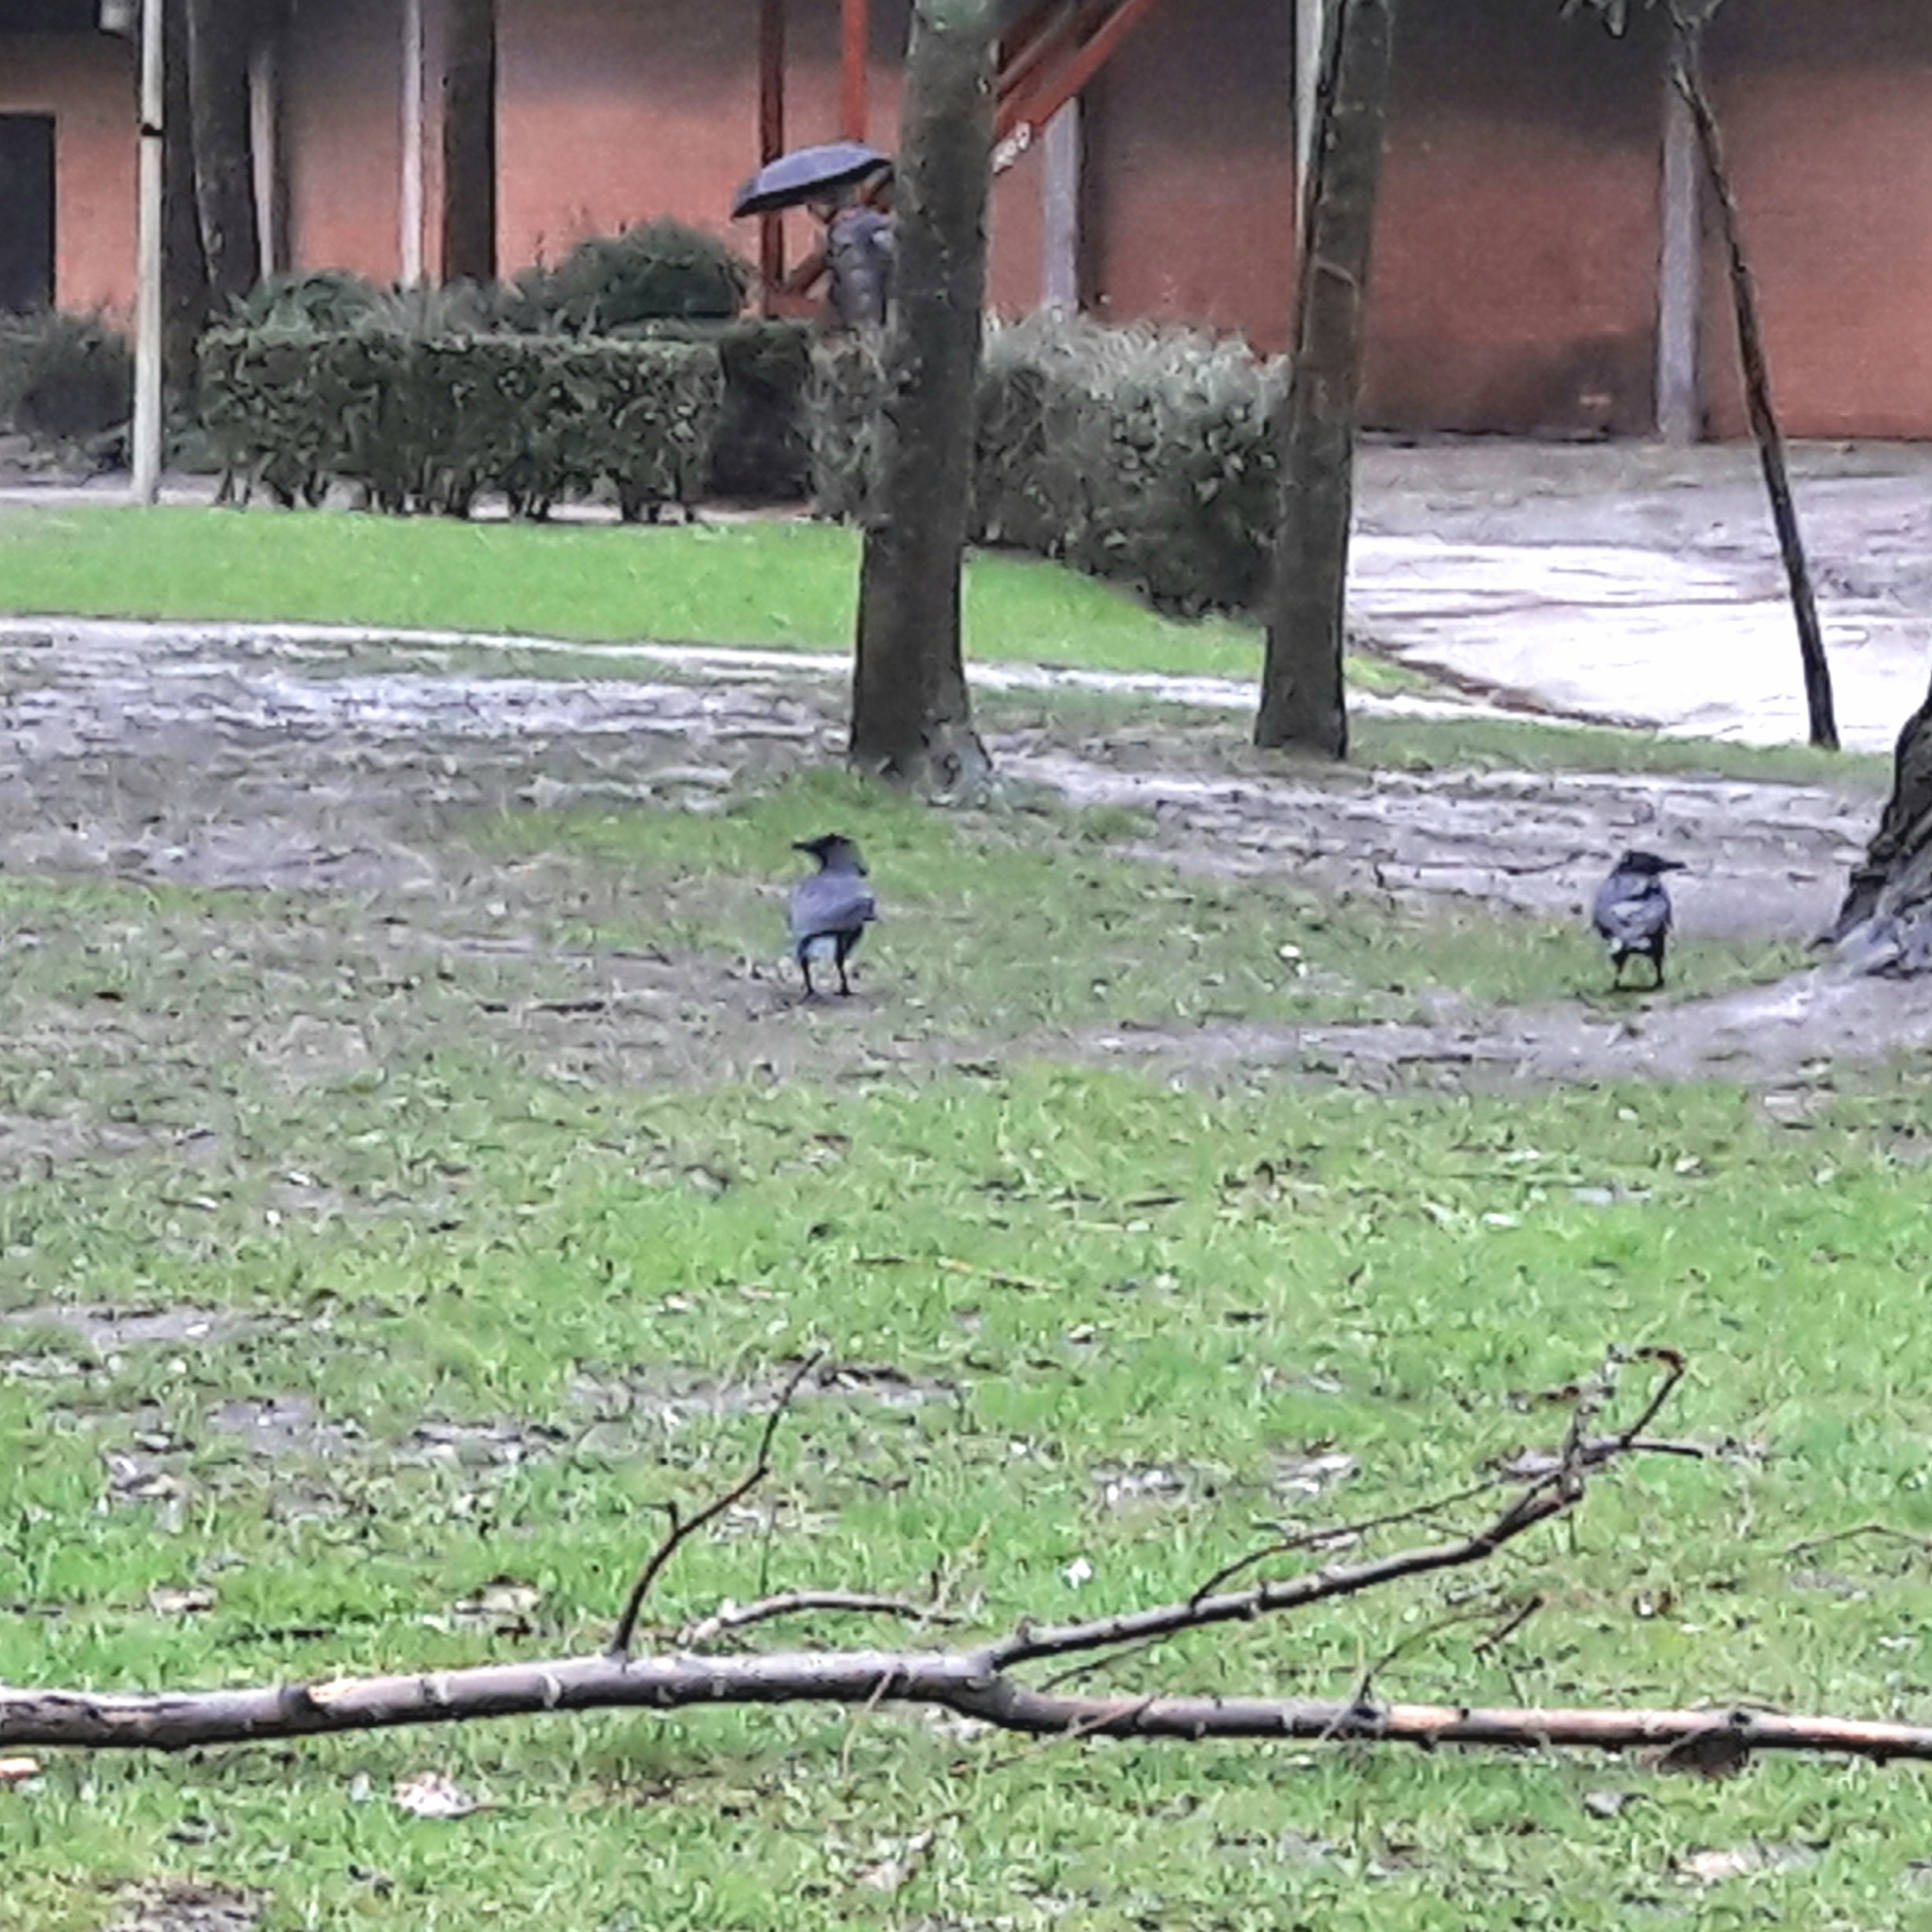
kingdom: Animalia
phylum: Chordata
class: Aves
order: Passeriformes
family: Corvidae
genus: Corvus
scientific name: Corvus corone
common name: Carrion crow
